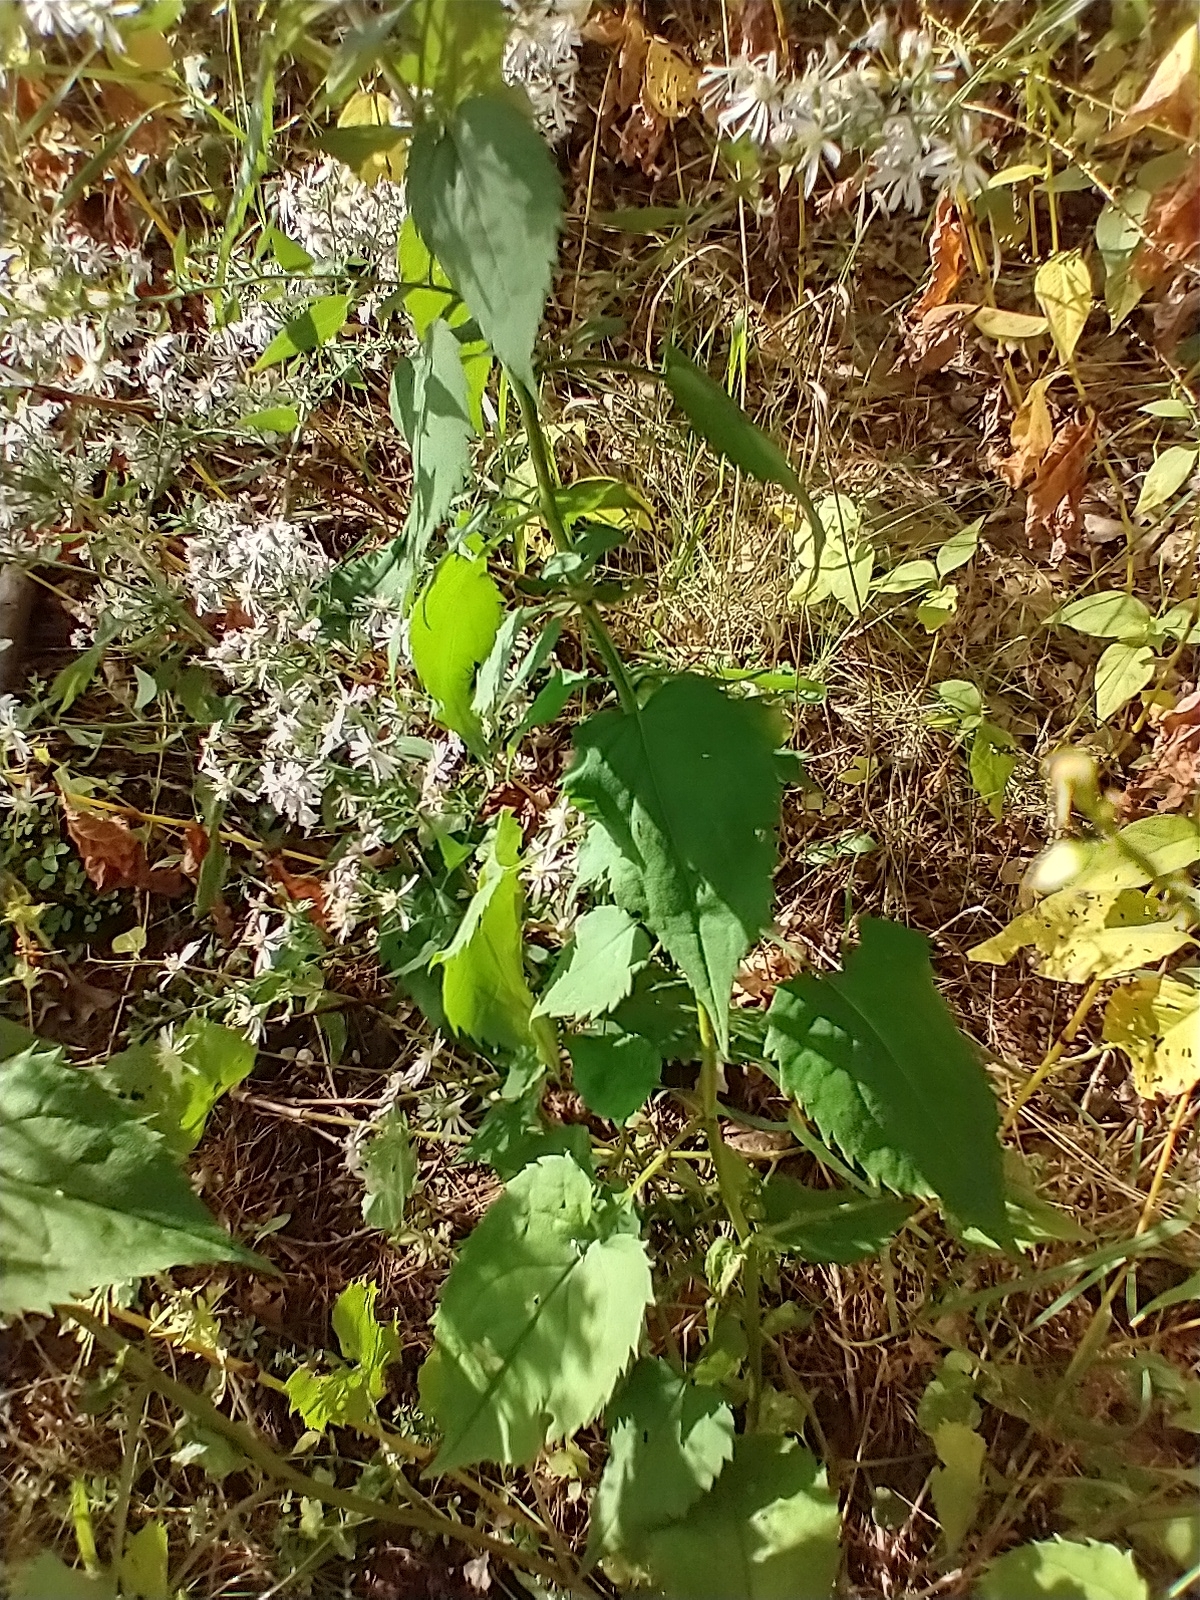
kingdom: Plantae
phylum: Tracheophyta
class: Magnoliopsida
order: Asterales
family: Asteraceae
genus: Symphyotrichum
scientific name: Symphyotrichum cordifolium
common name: Beeweed
